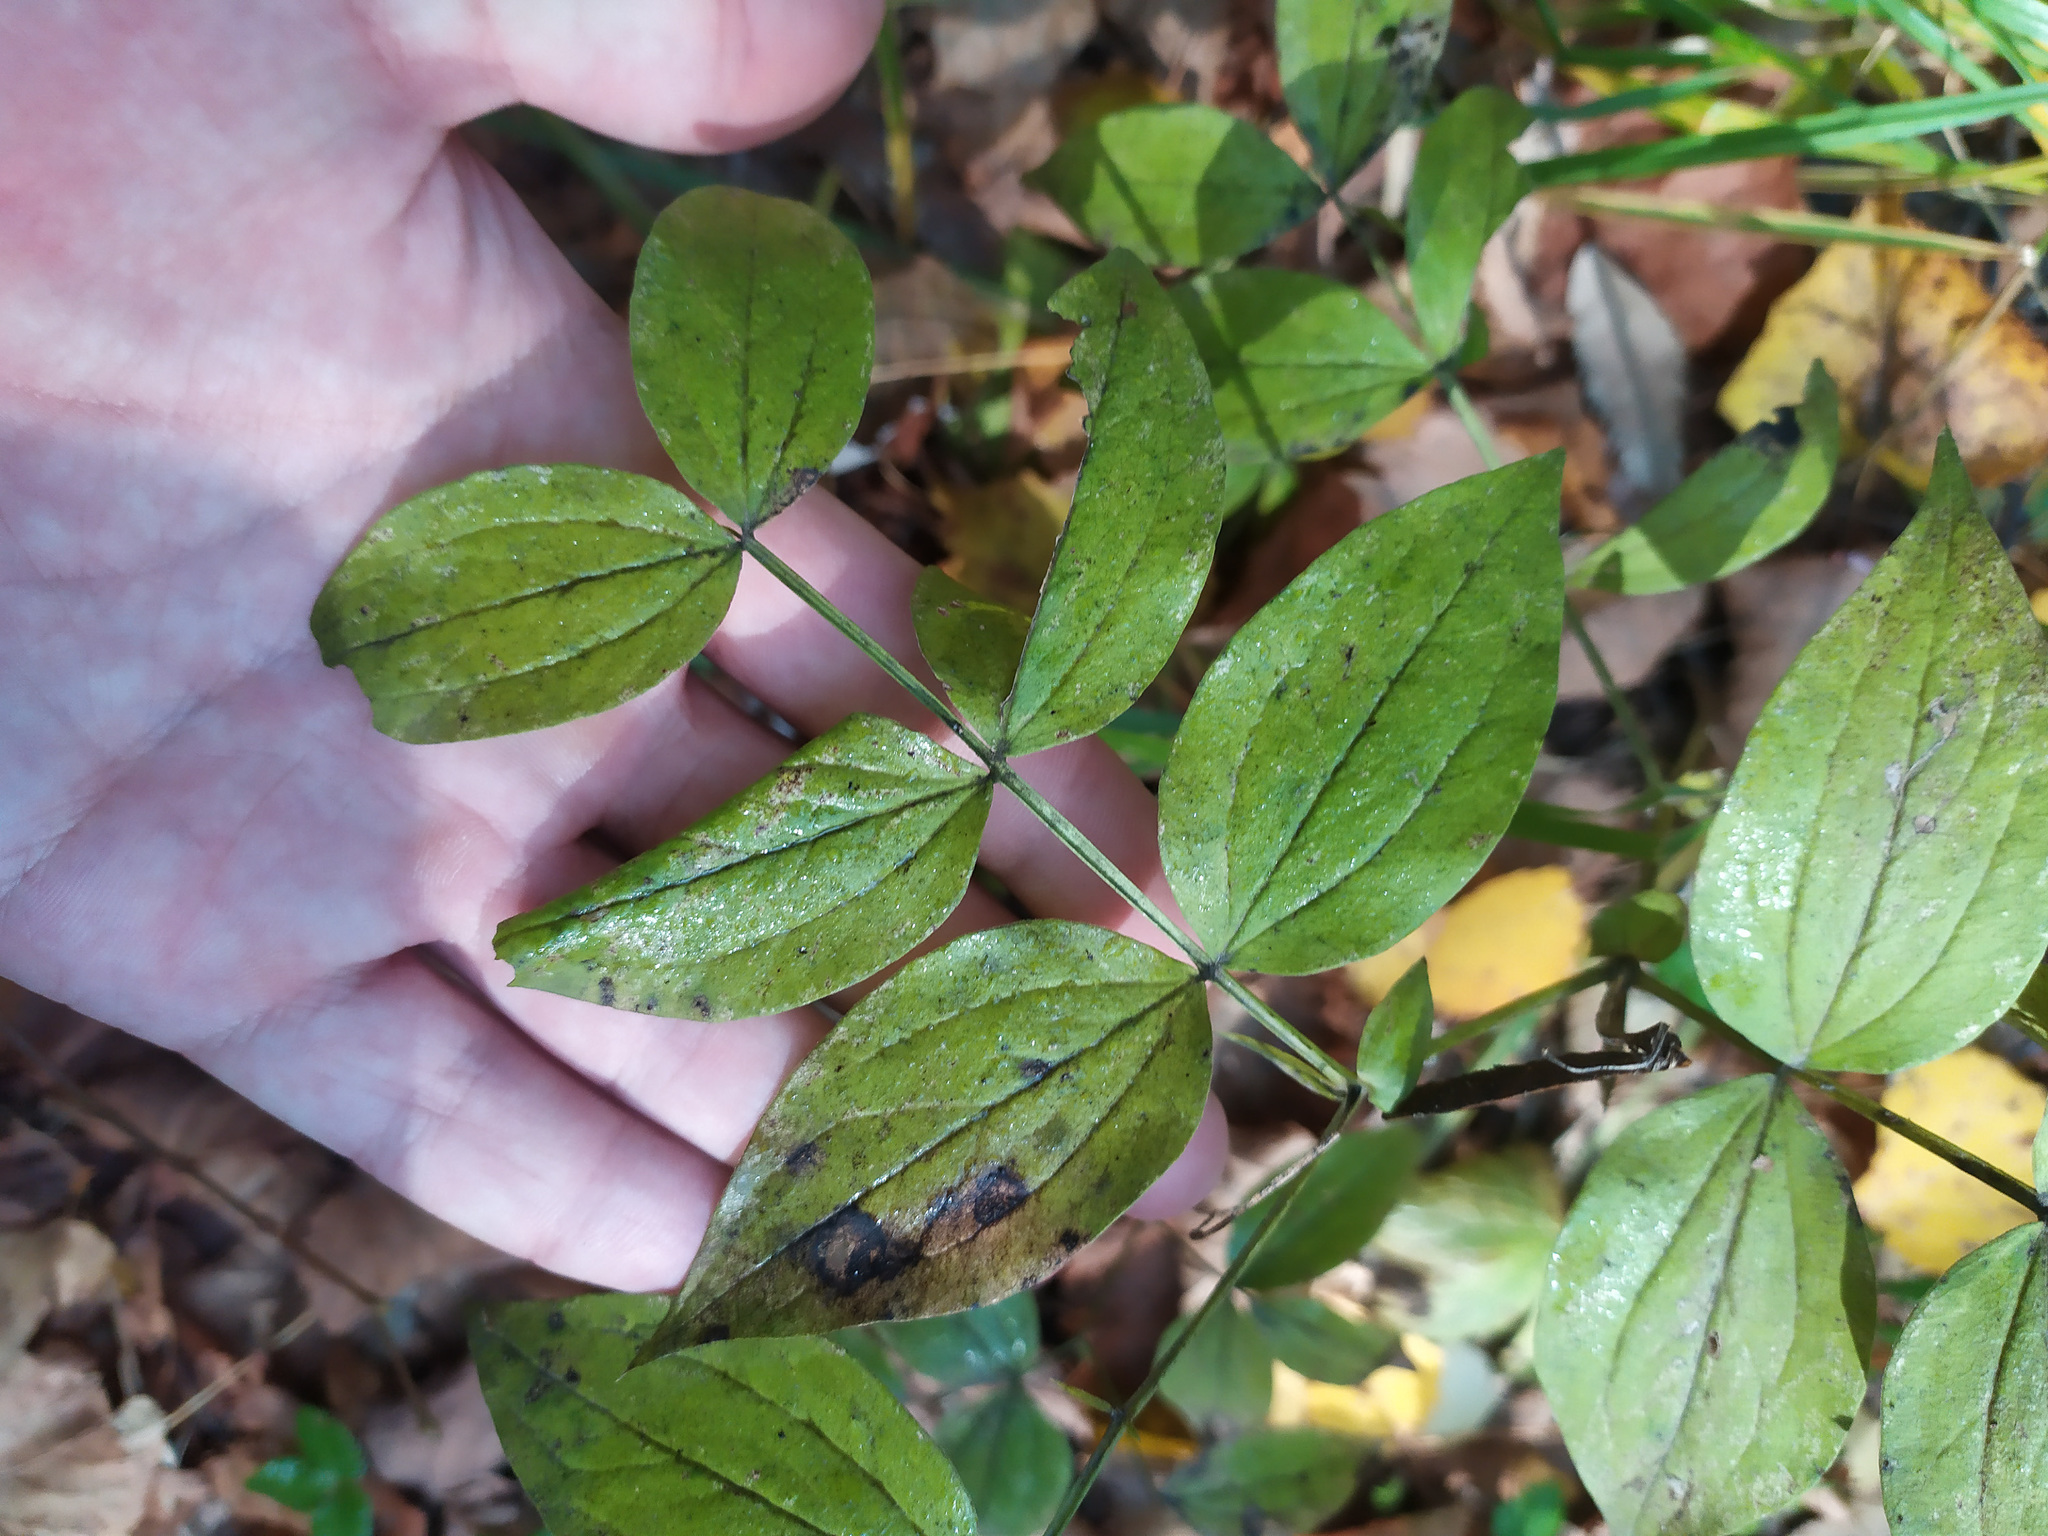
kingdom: Plantae
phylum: Tracheophyta
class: Magnoliopsida
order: Fabales
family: Fabaceae
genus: Lathyrus
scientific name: Lathyrus vernus
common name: Spring pea
